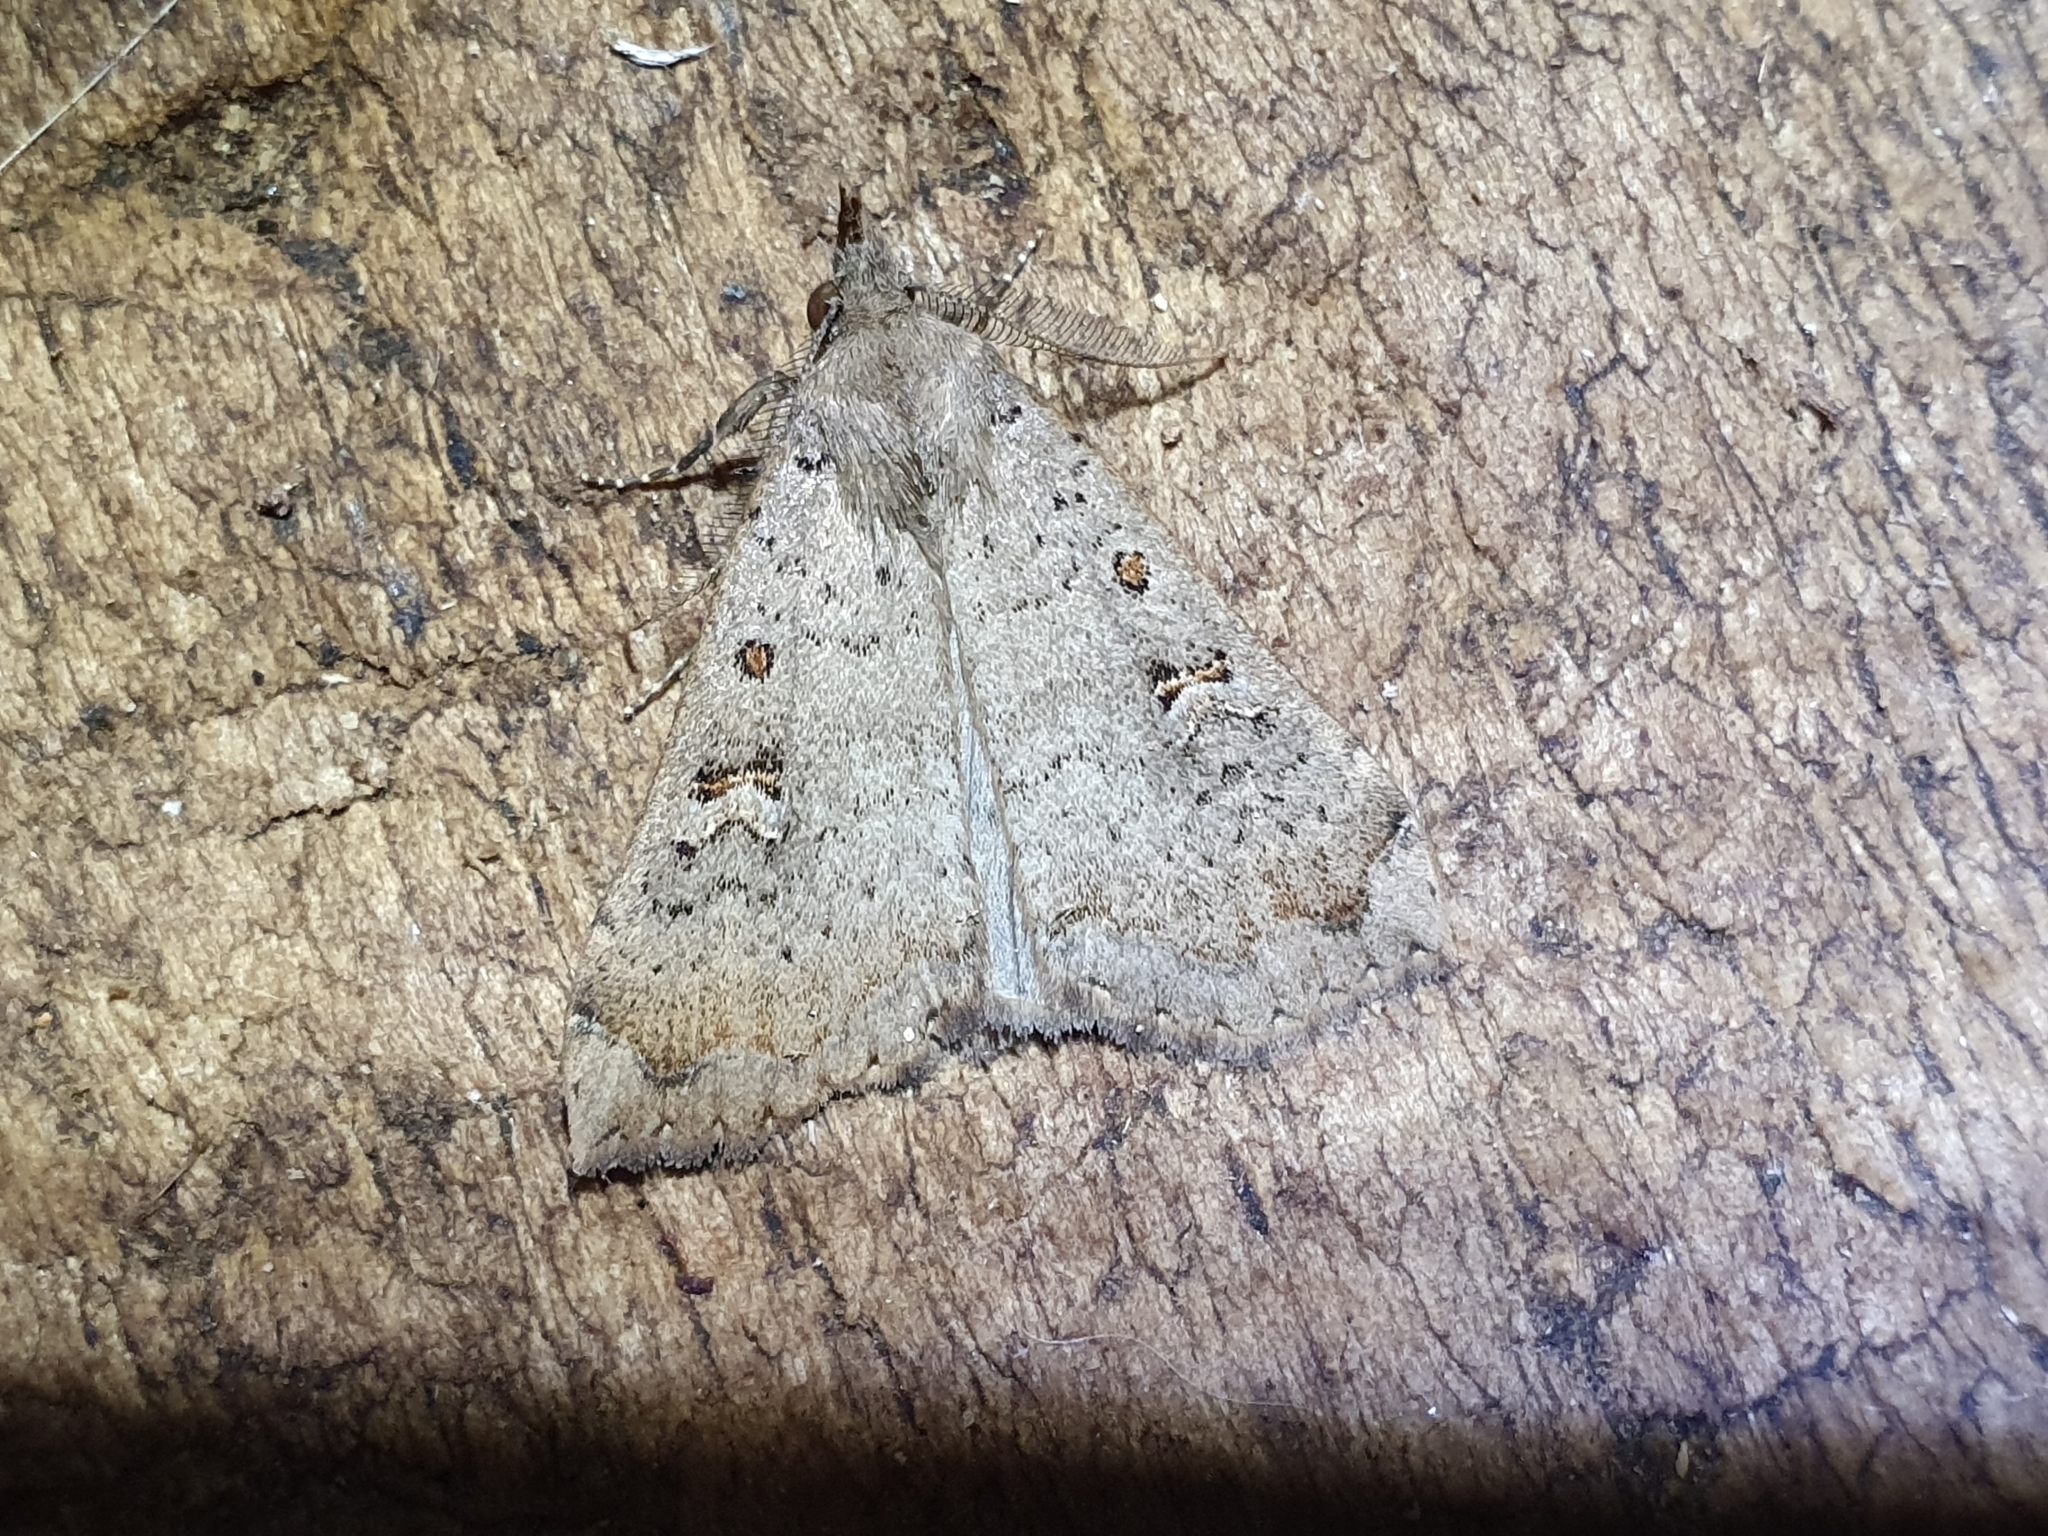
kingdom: Animalia
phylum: Arthropoda
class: Insecta
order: Lepidoptera
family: Erebidae
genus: Rhapsa
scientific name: Rhapsa scotosialis
